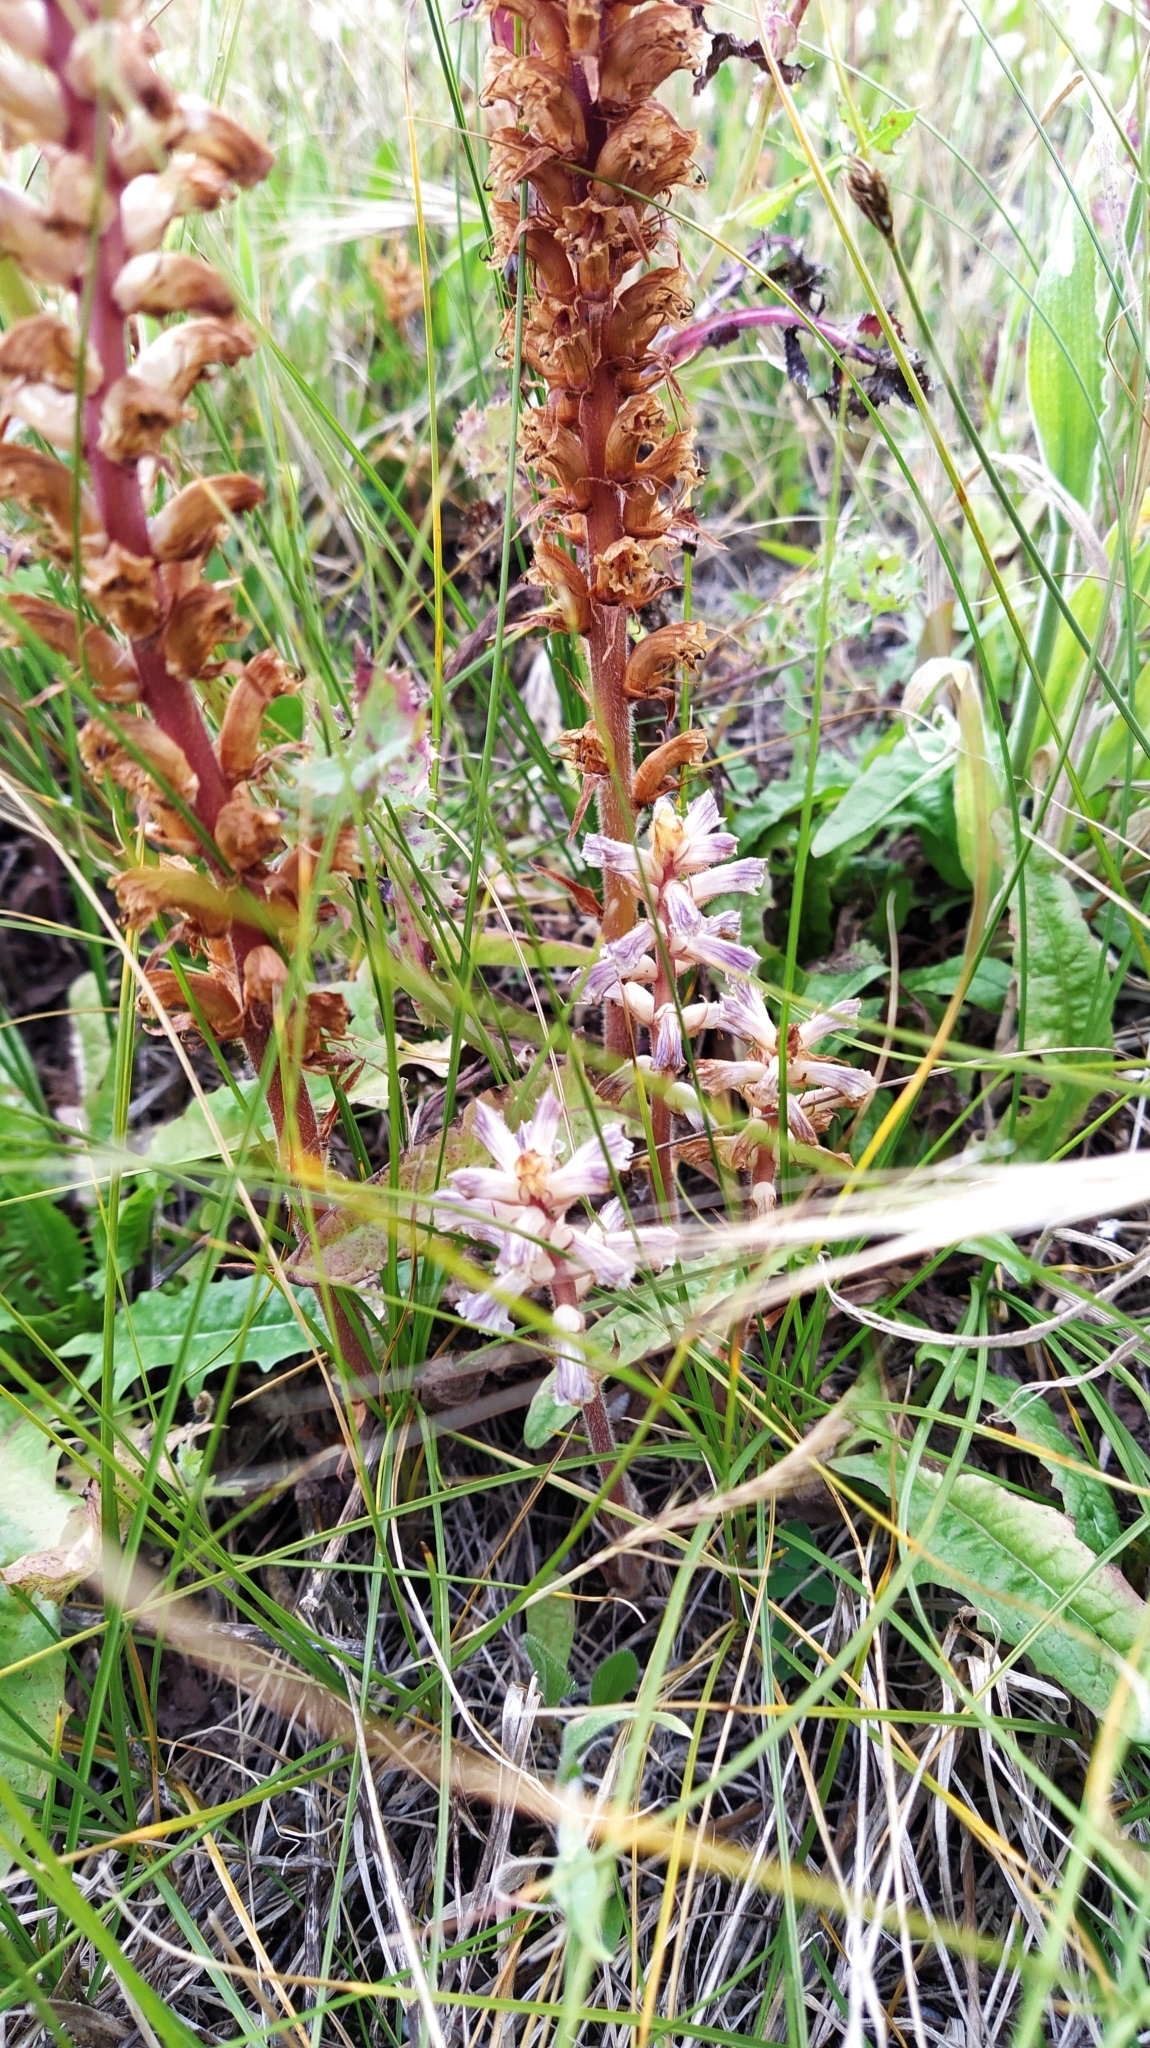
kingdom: Plantae
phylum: Tracheophyta
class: Magnoliopsida
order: Lamiales
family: Orobanchaceae
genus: Orobanche
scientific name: Orobanche minor
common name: Common broomrape
